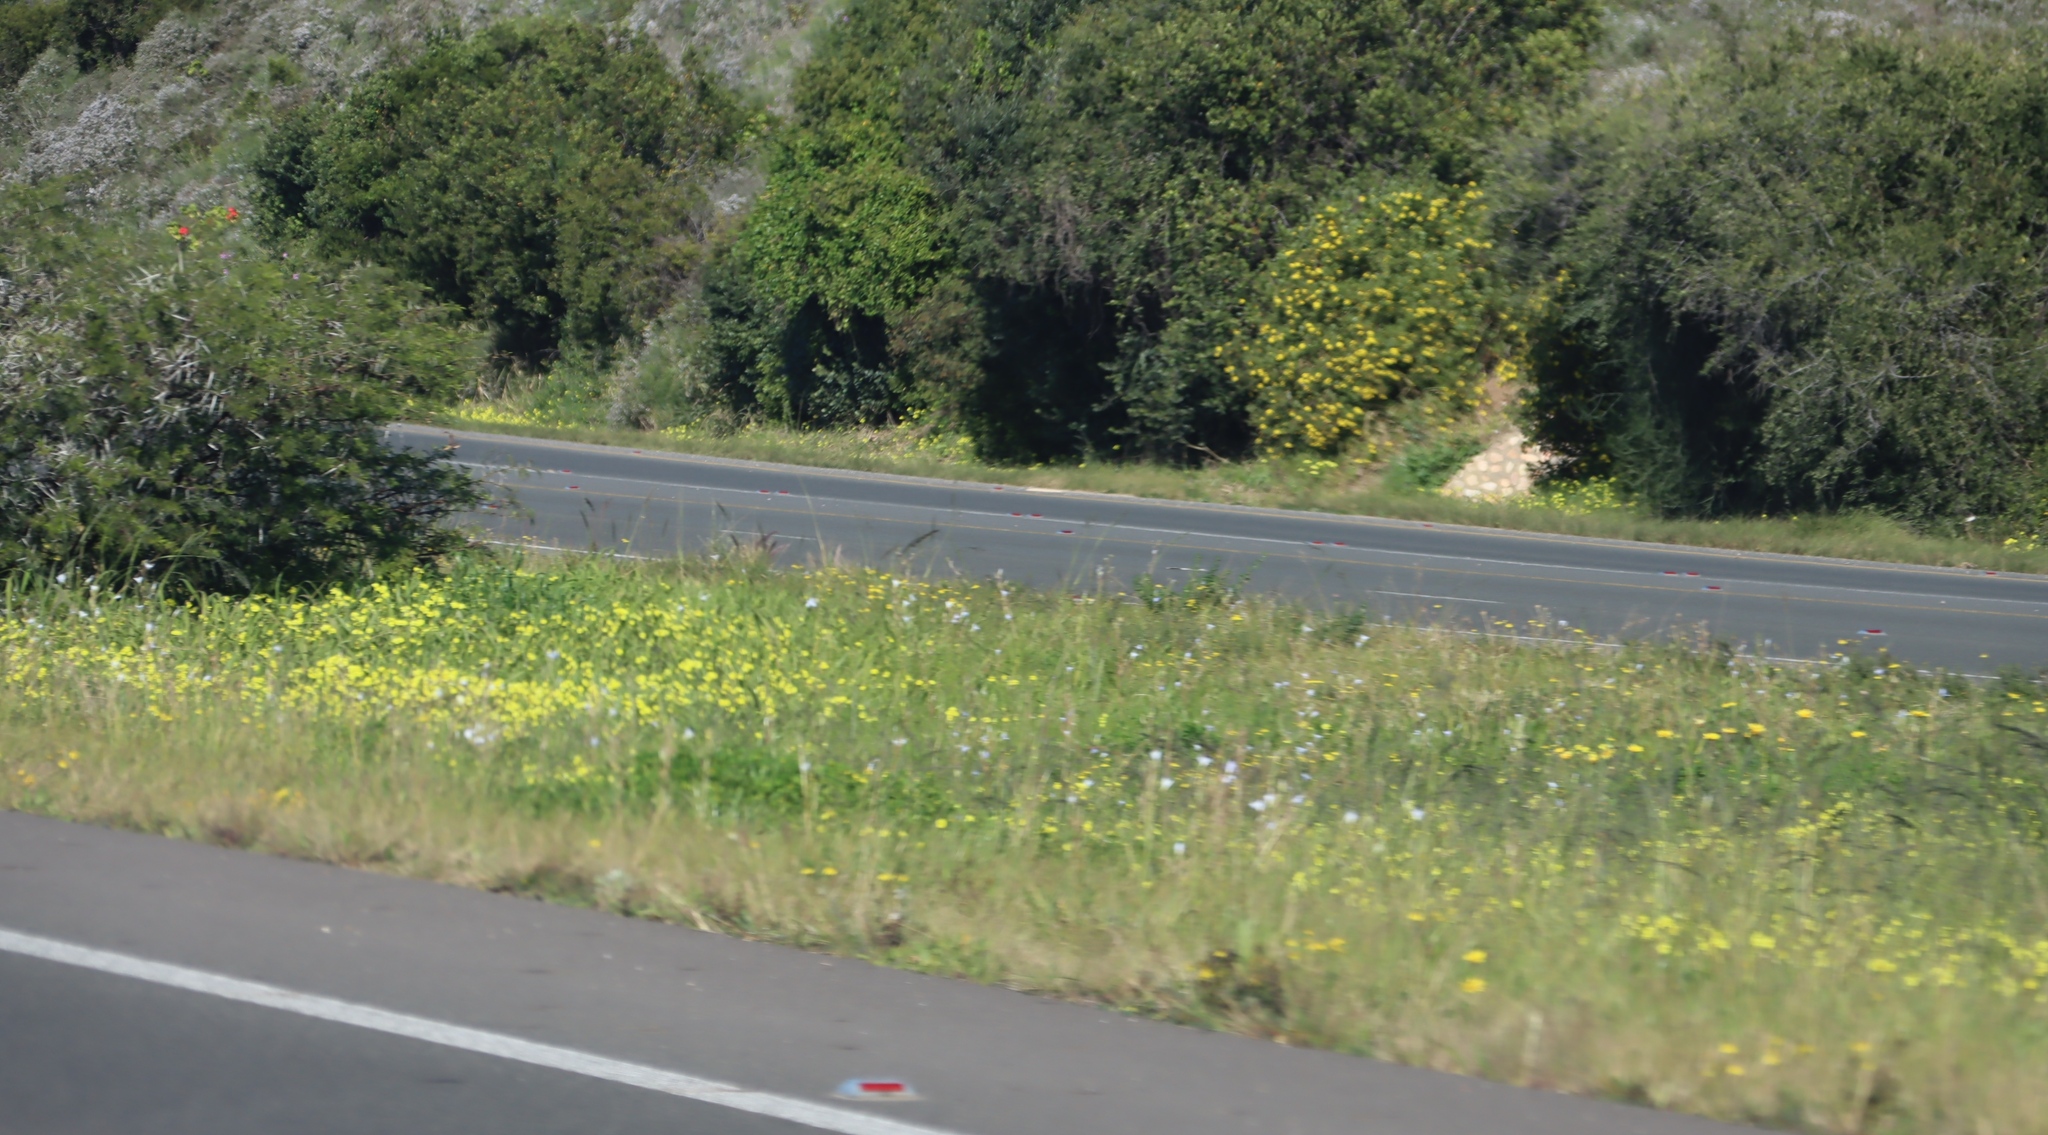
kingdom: Plantae
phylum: Tracheophyta
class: Magnoliopsida
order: Oxalidales
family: Oxalidaceae
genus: Oxalis
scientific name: Oxalis pes-caprae
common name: Bermuda-buttercup
